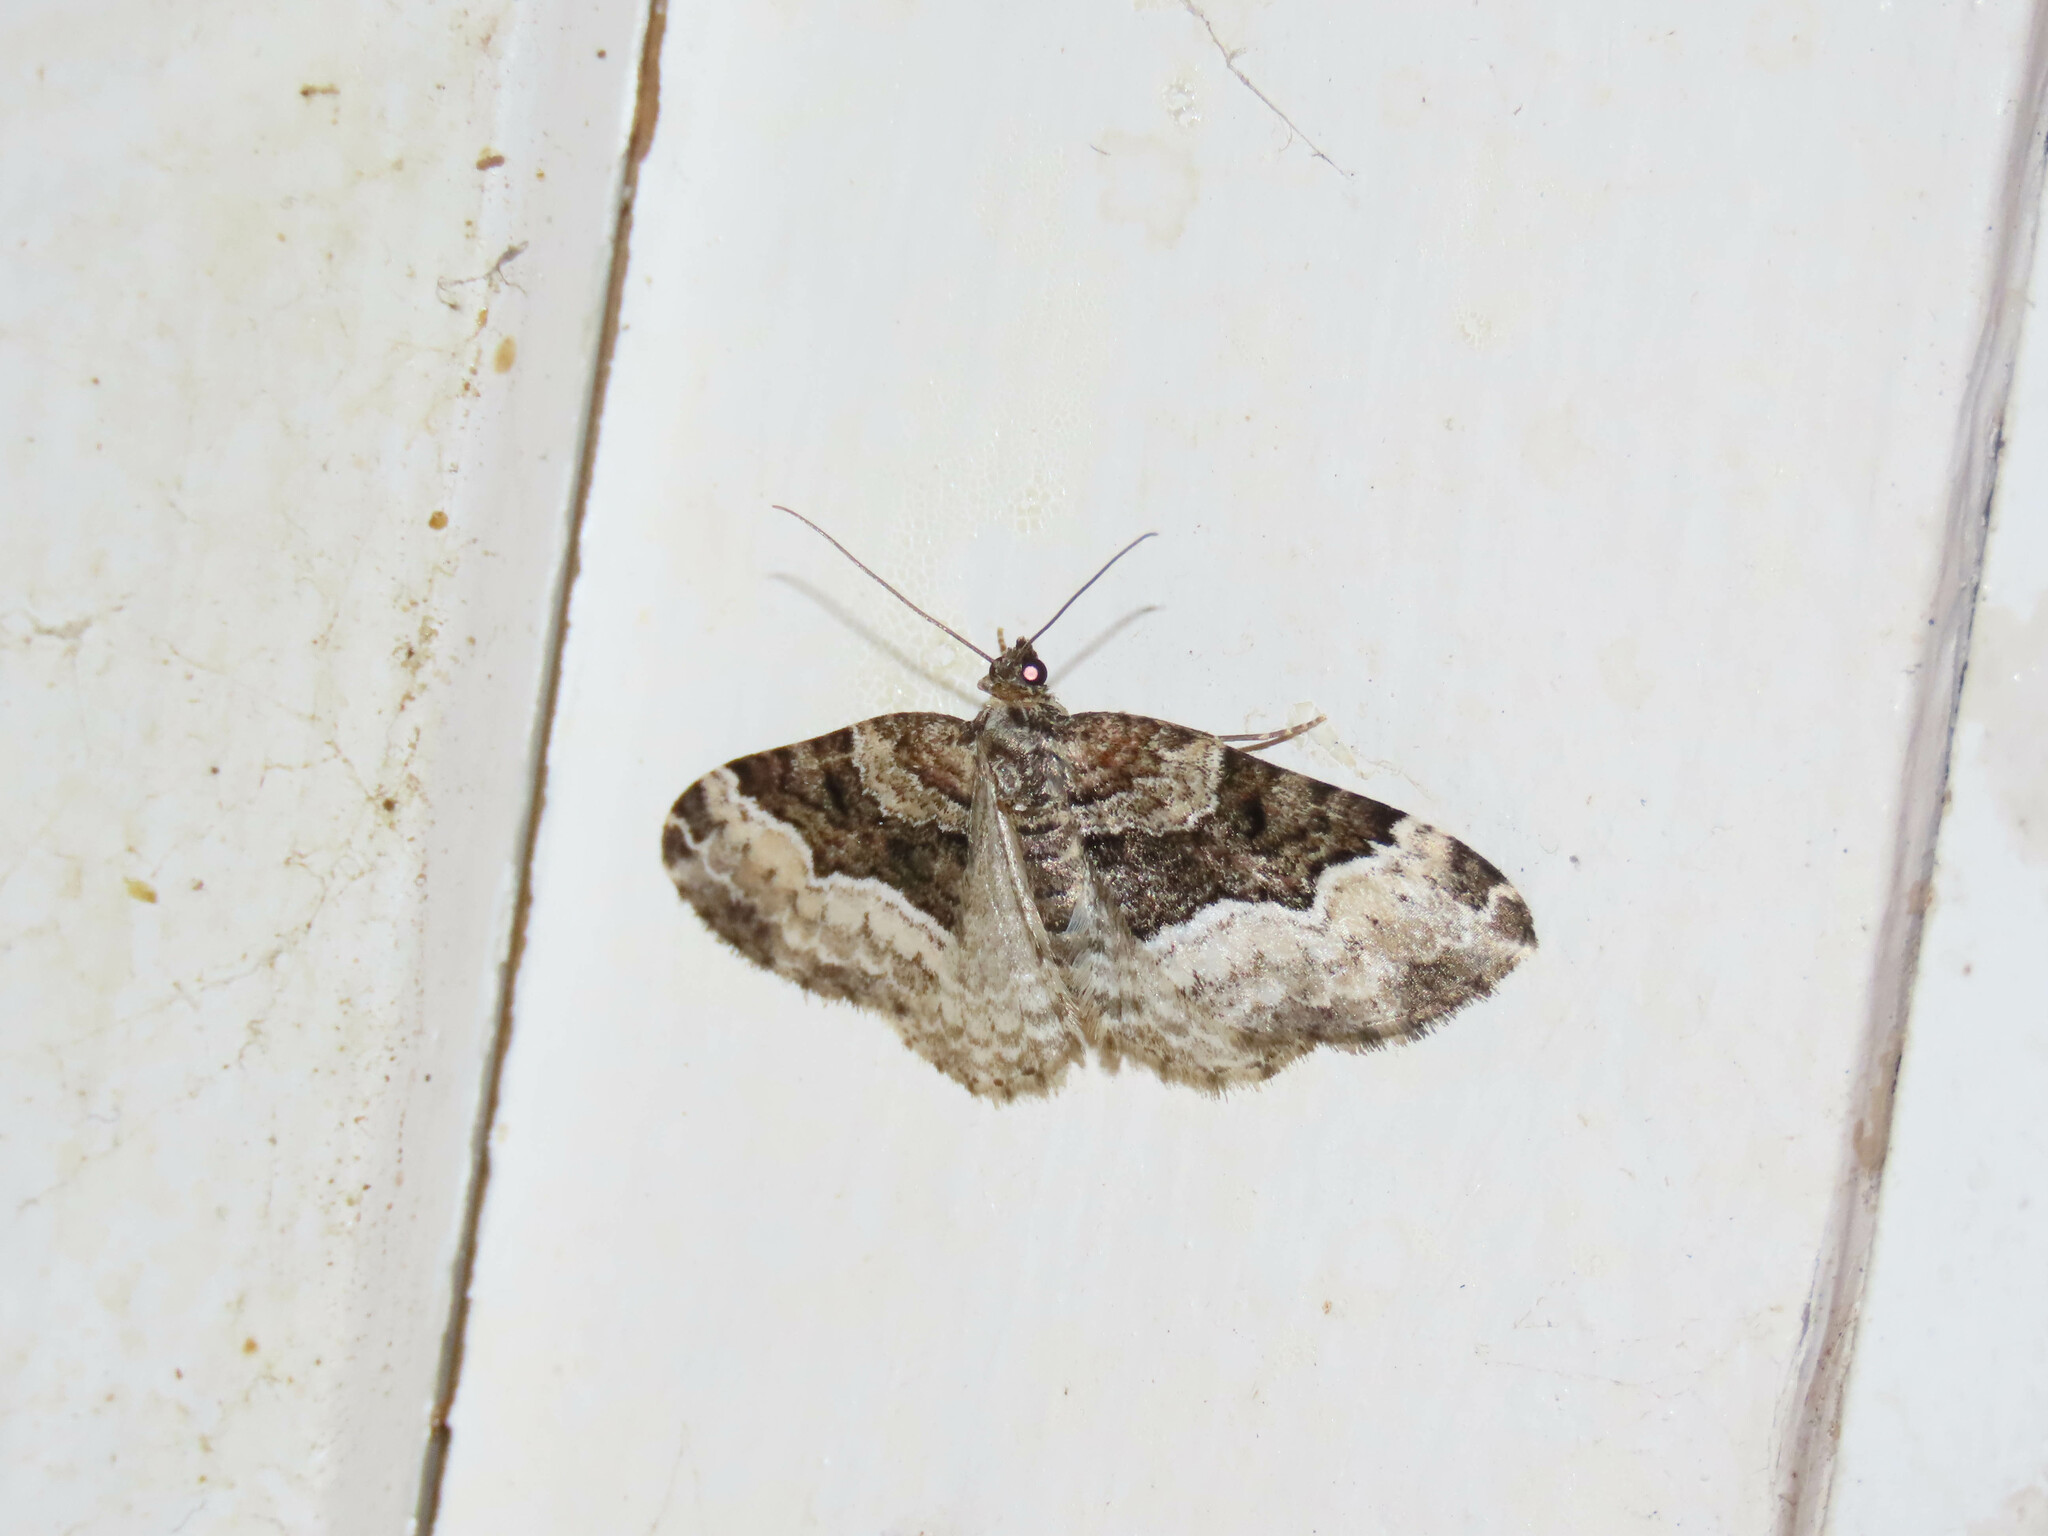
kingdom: Animalia
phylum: Arthropoda
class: Insecta
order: Lepidoptera
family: Geometridae
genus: Euphyia
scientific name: Euphyia intermediata
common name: Sharp-angled carpet
